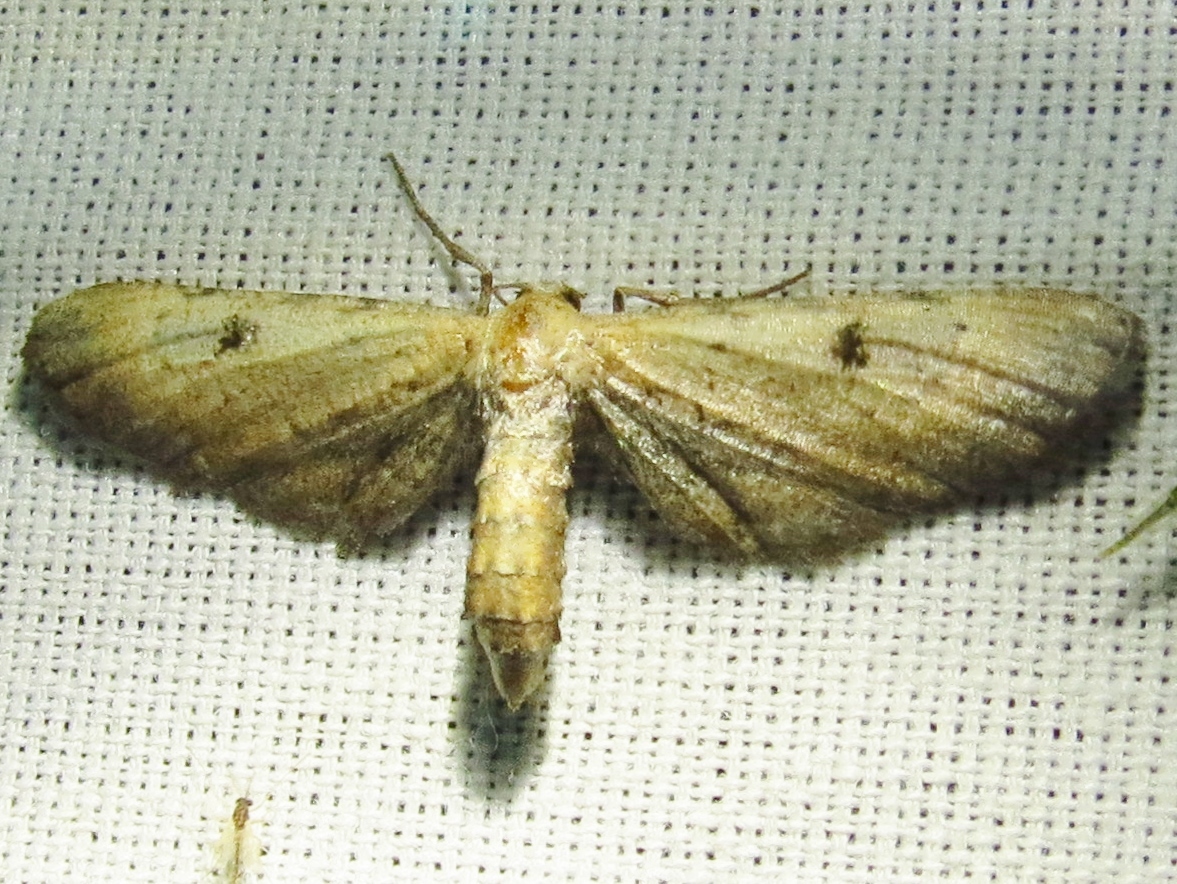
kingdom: Animalia
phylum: Arthropoda
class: Insecta
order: Lepidoptera
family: Geometridae
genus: Tornos
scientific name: Tornos scolopacinaria
